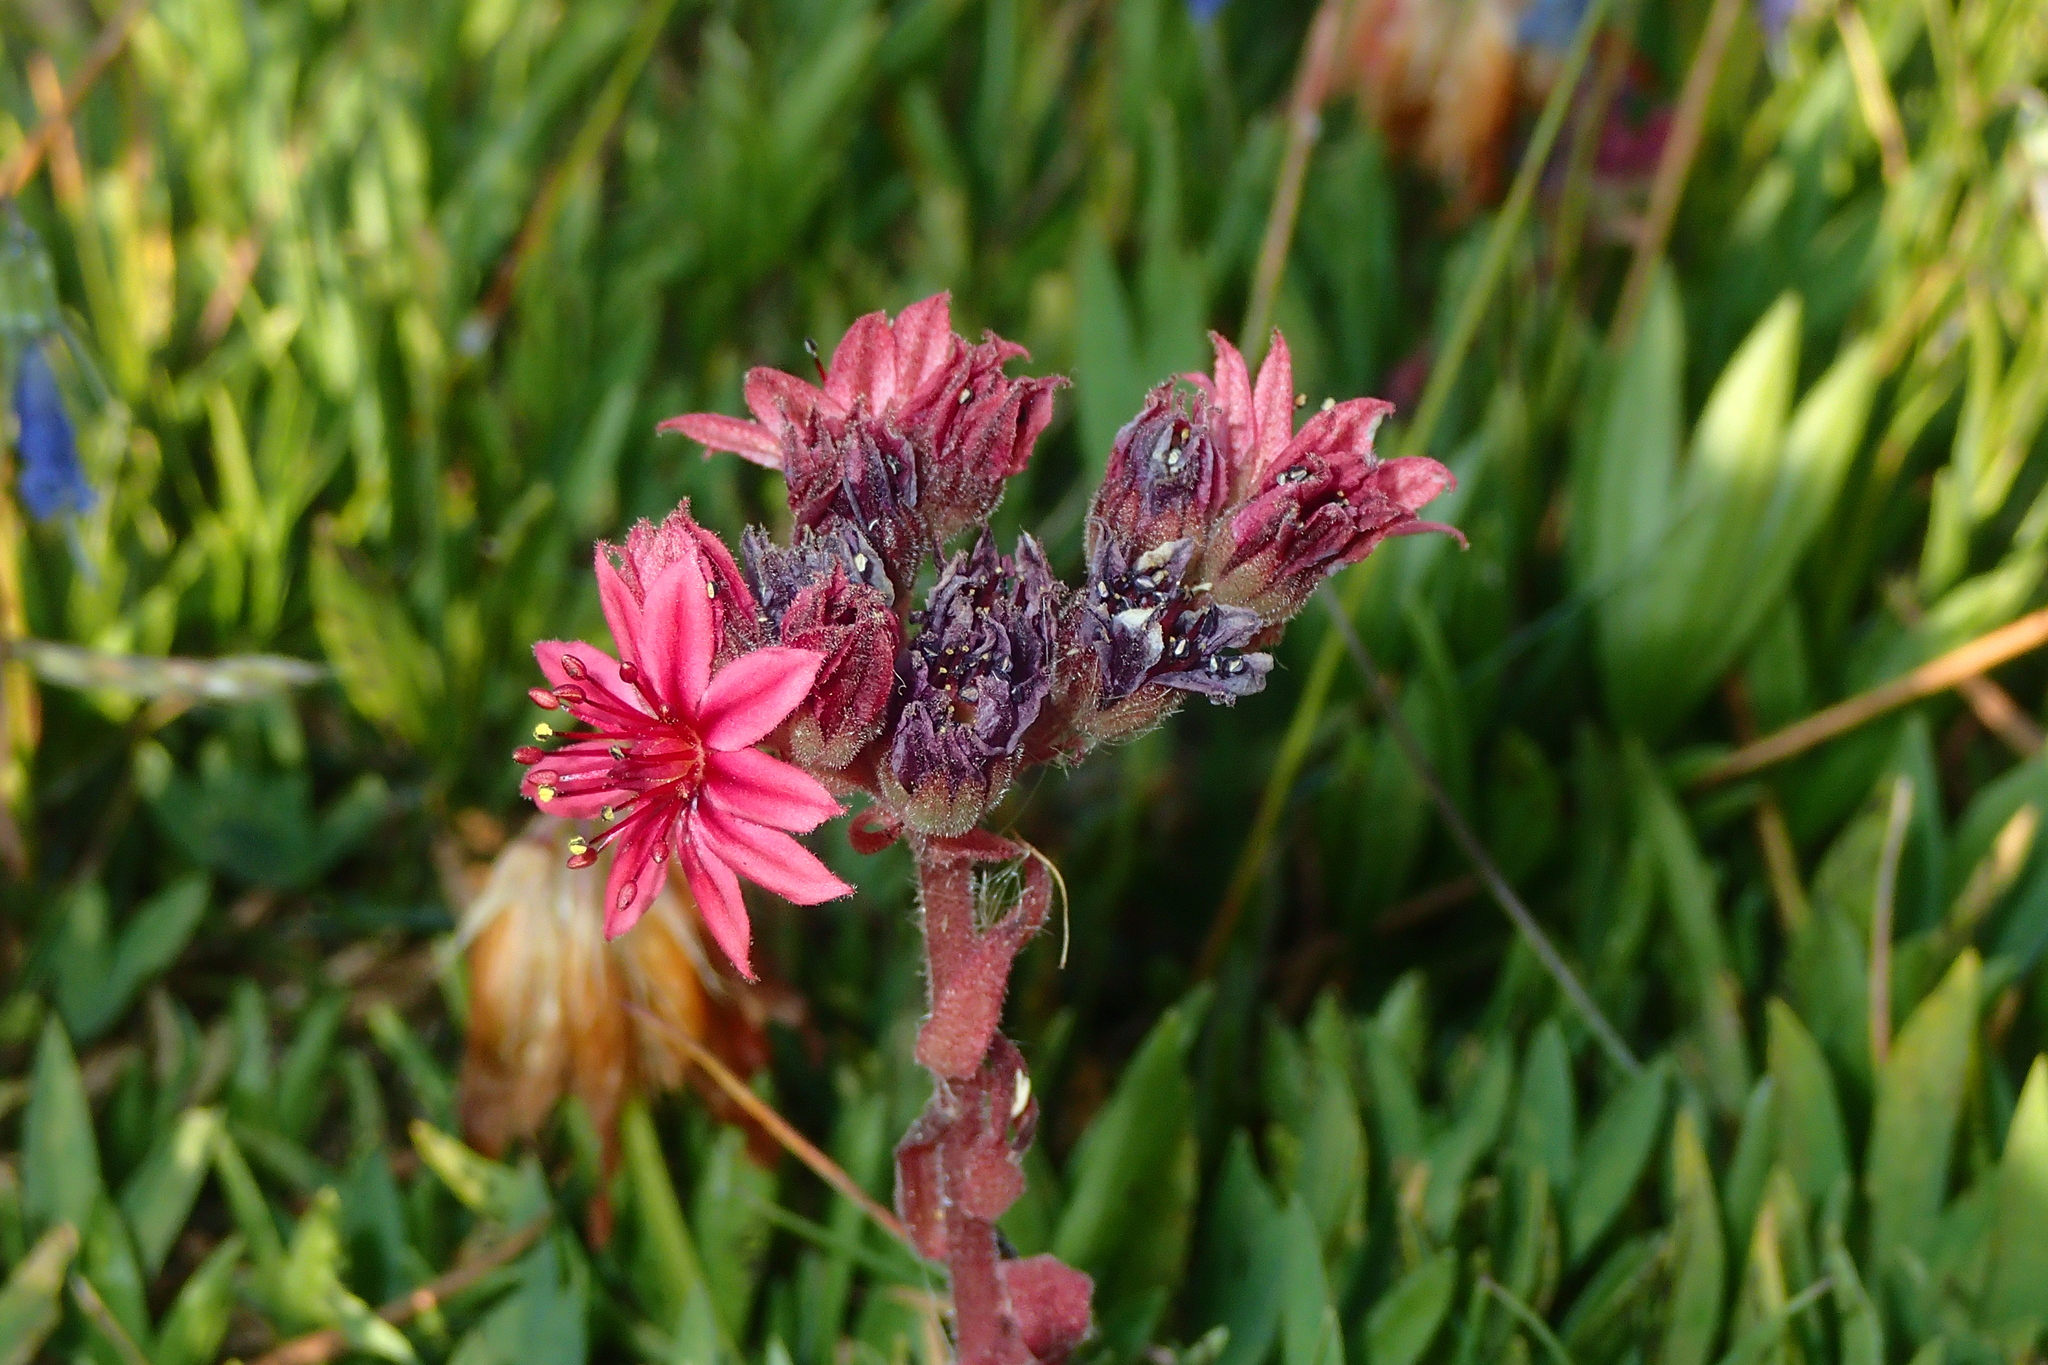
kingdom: Plantae
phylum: Tracheophyta
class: Magnoliopsida
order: Saxifragales
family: Crassulaceae
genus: Sempervivum
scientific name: Sempervivum arachnoideum
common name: Cobweb house-leek
